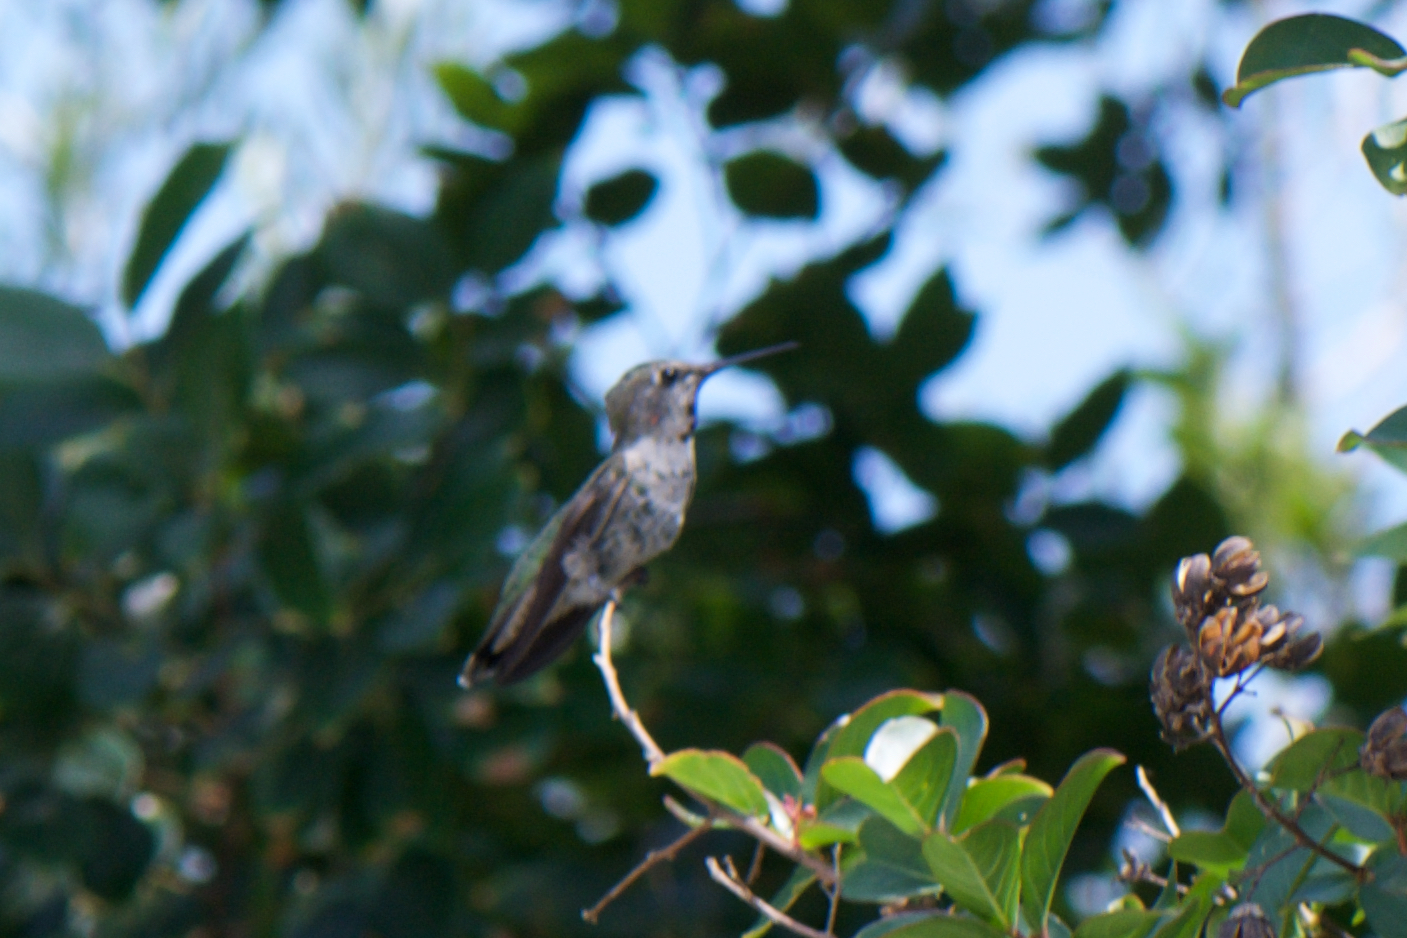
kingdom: Animalia
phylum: Chordata
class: Aves
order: Apodiformes
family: Trochilidae
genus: Calypte
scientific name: Calypte anna
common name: Anna's hummingbird
